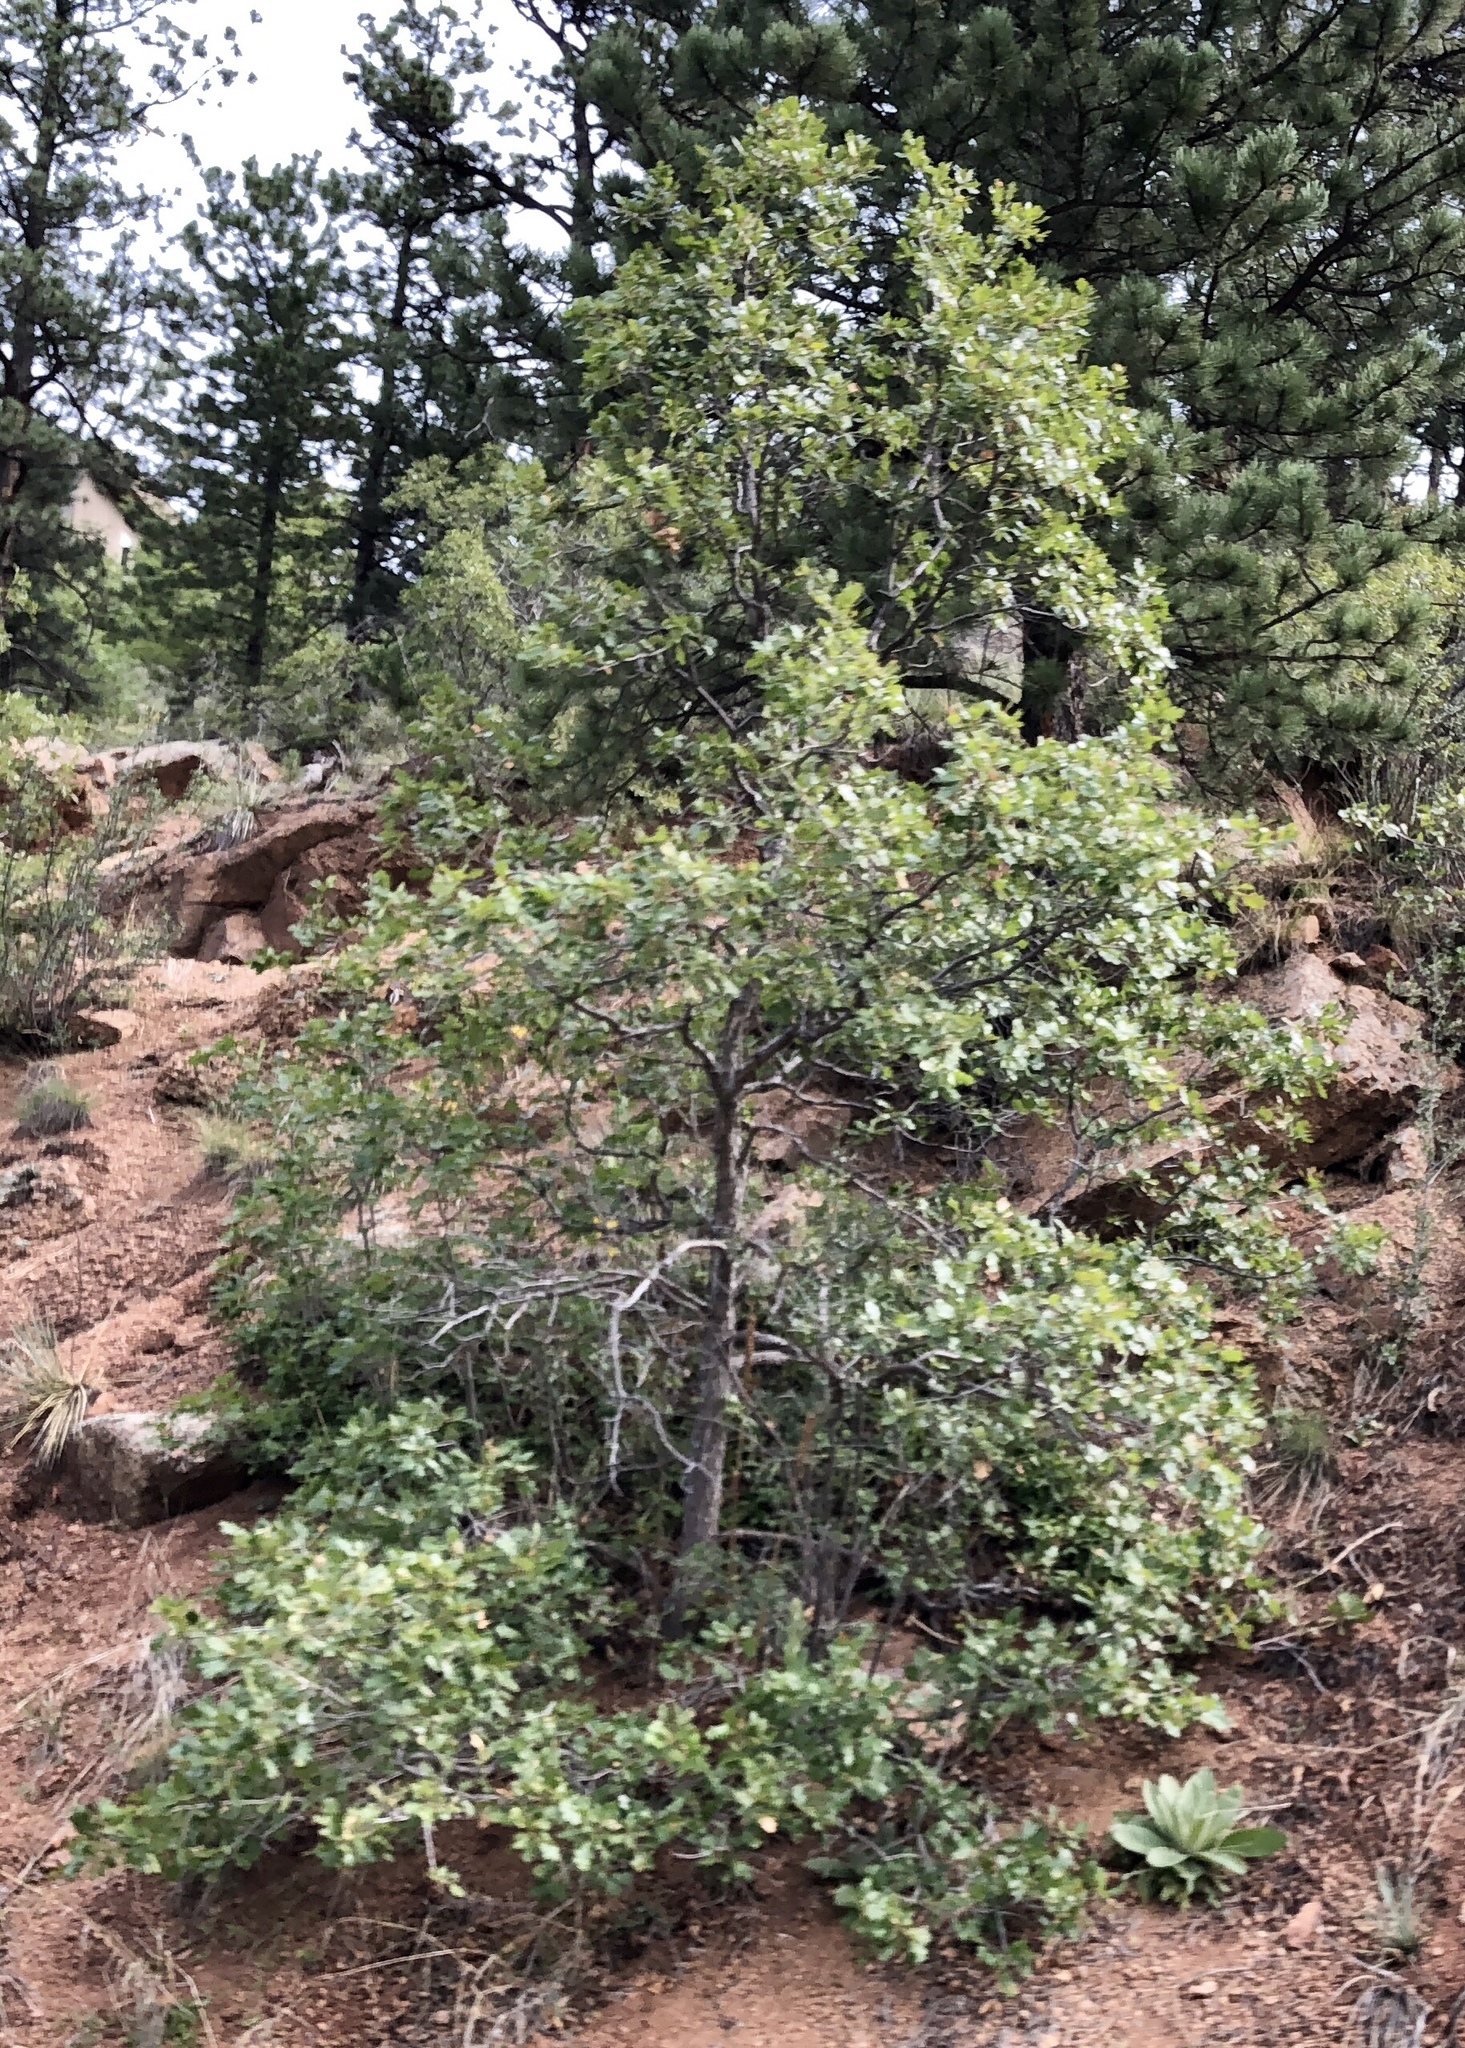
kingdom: Plantae
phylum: Tracheophyta
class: Magnoliopsida
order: Fagales
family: Fagaceae
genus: Quercus
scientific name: Quercus gambelii
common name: Gambel oak
